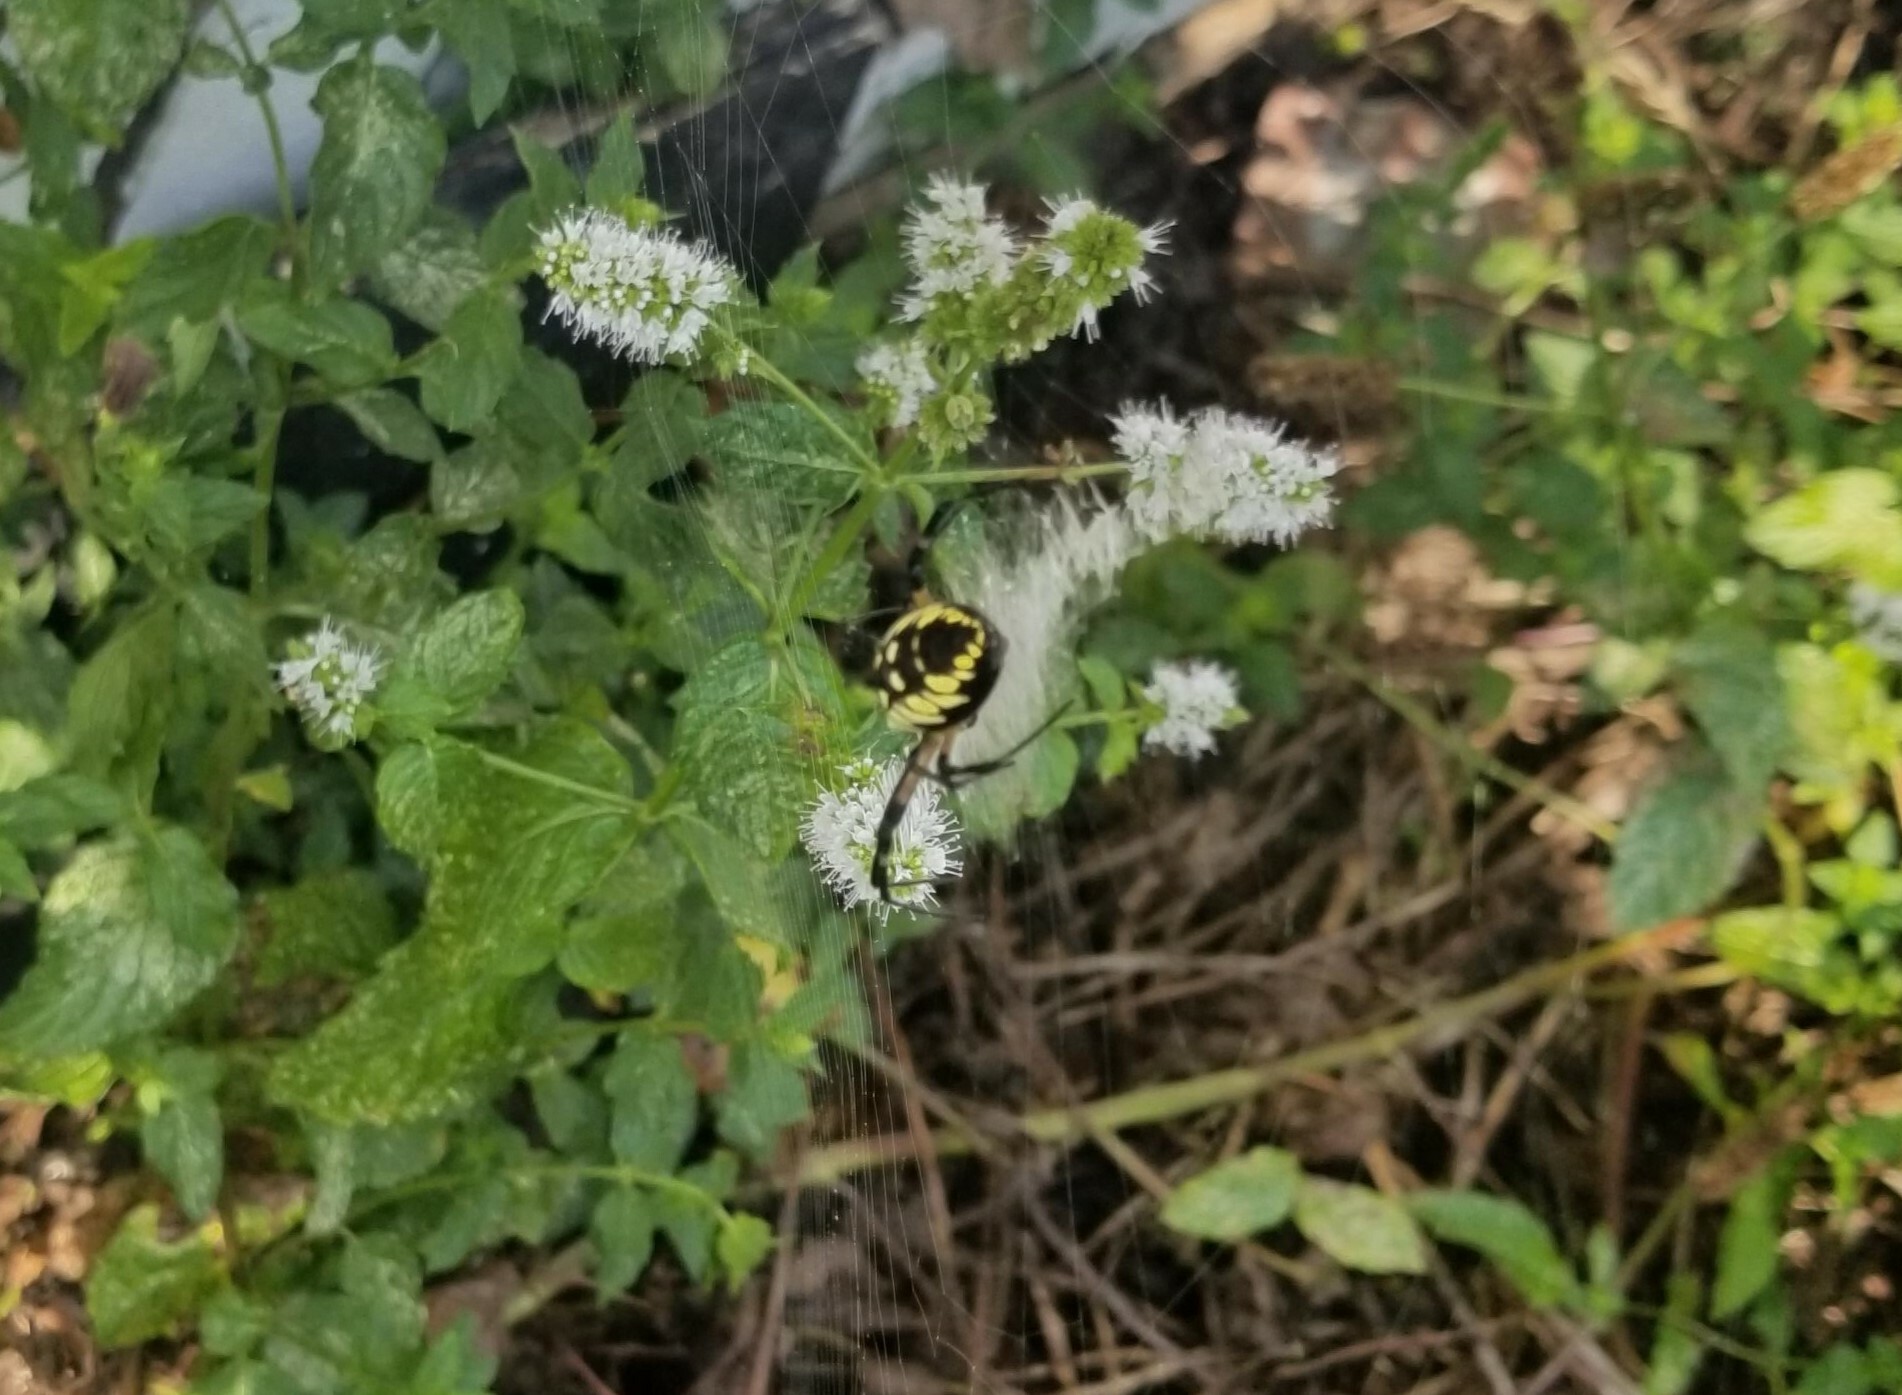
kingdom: Animalia
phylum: Arthropoda
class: Arachnida
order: Araneae
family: Araneidae
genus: Argiope
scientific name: Argiope aurantia
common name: Orb weavers
